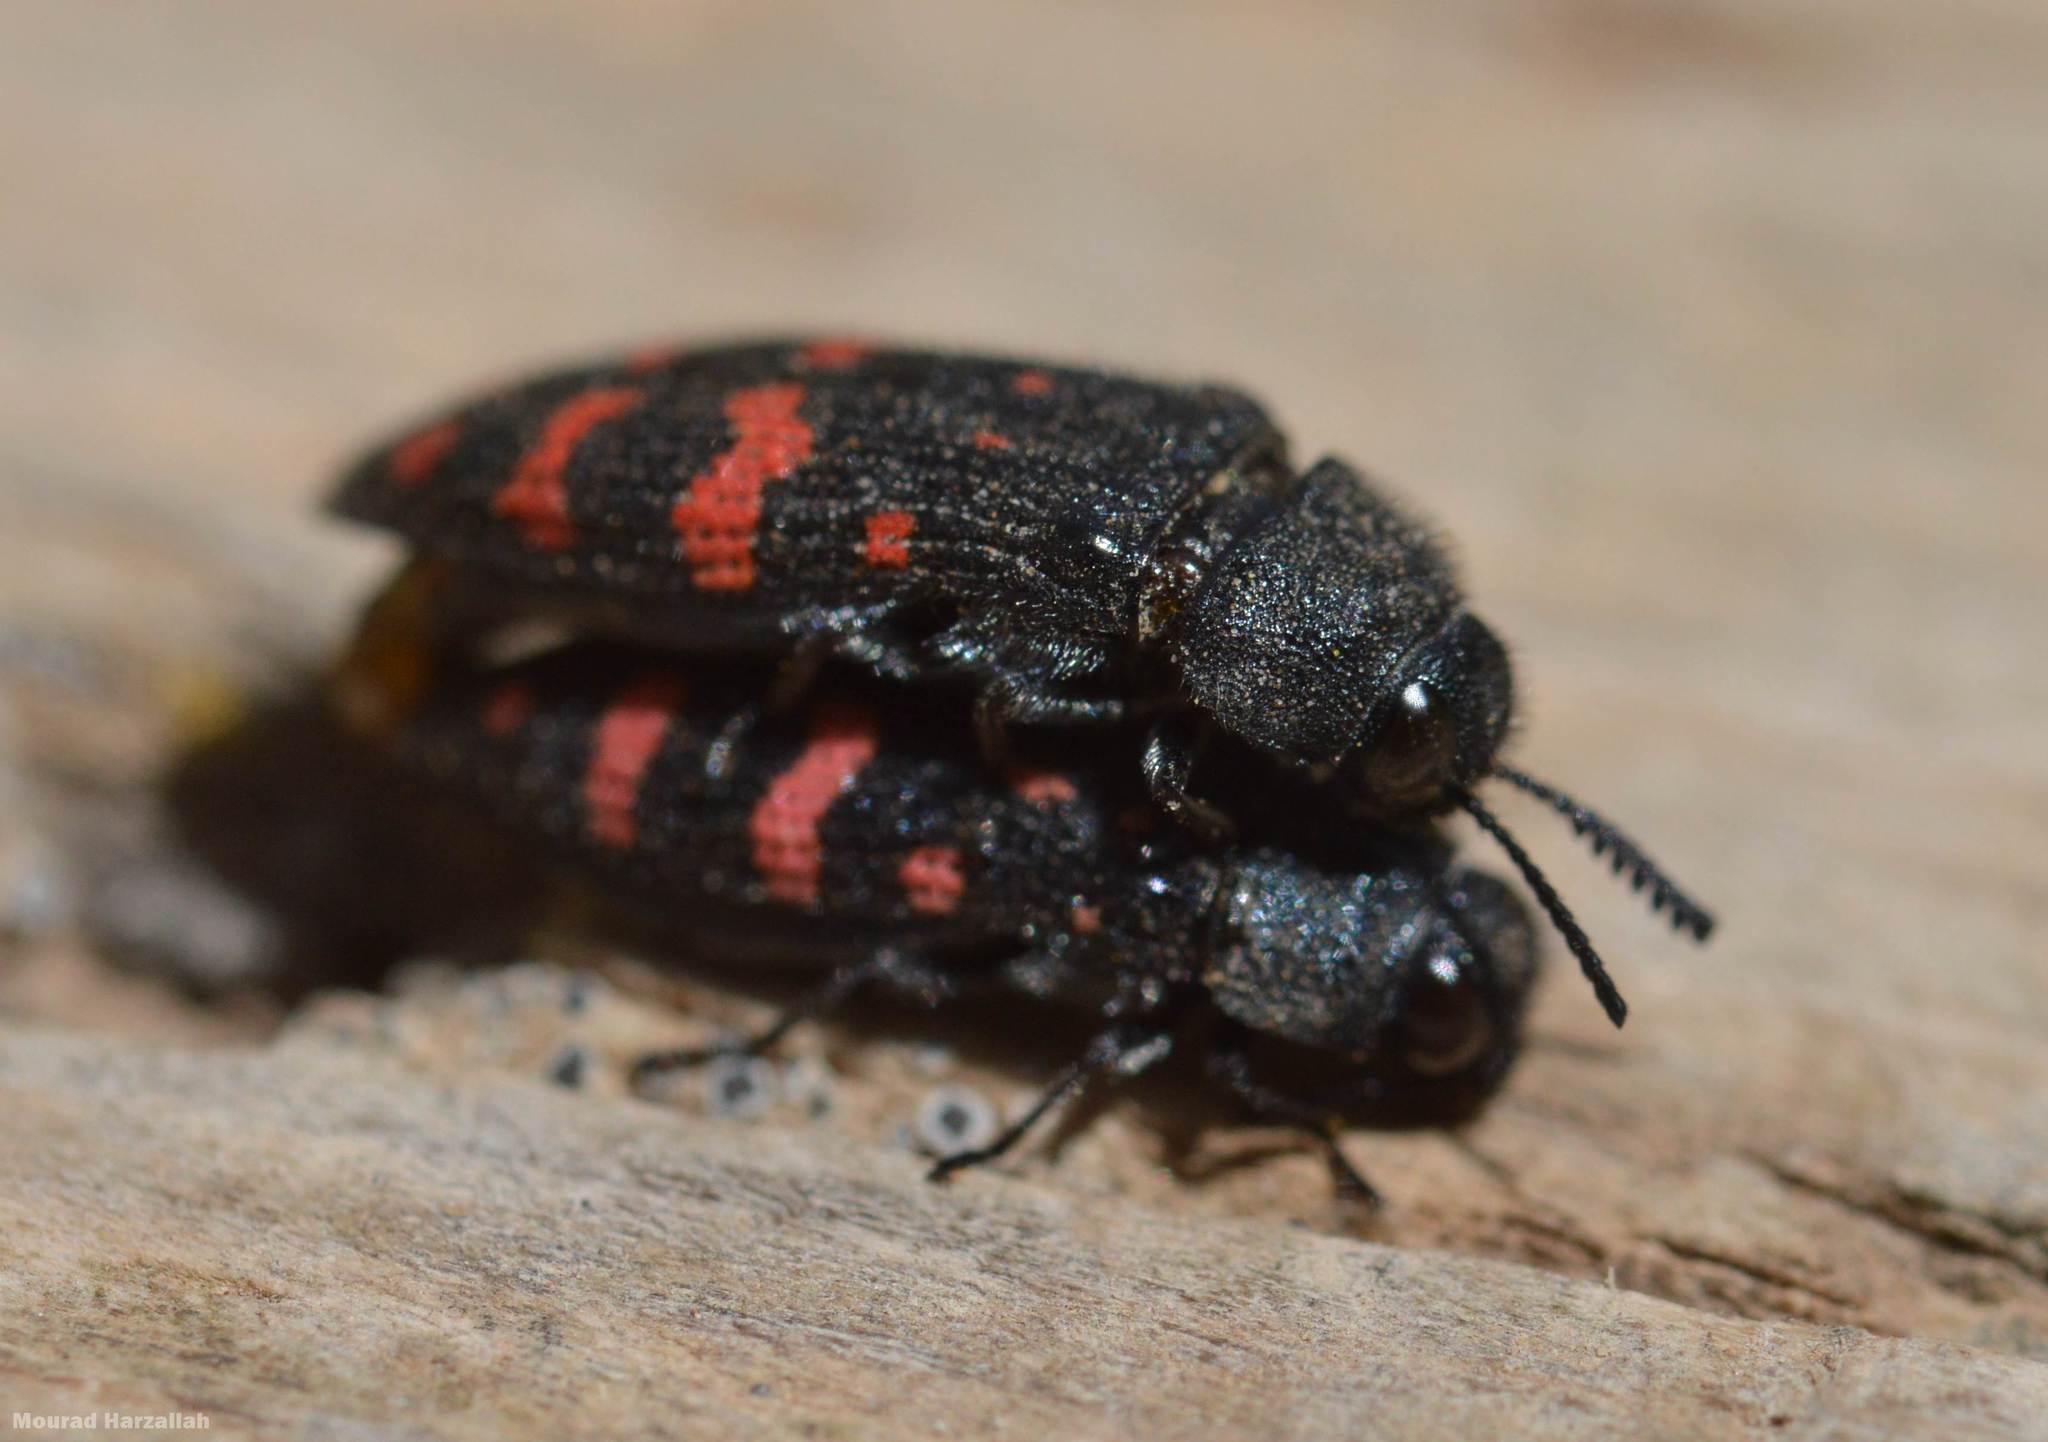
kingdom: Animalia
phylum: Arthropoda
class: Insecta
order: Coleoptera
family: Buprestidae
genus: Acmaeodera
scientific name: Acmaeodera pulchra
